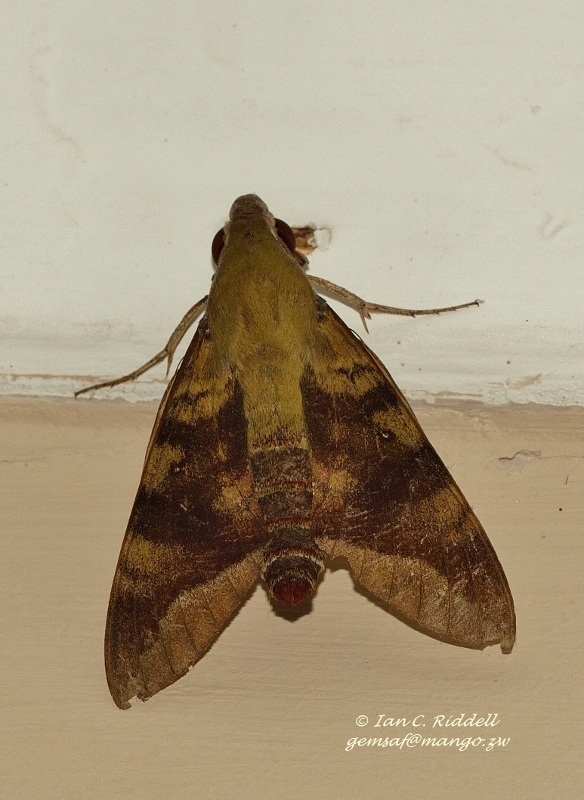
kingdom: Animalia
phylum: Arthropoda
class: Insecta
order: Lepidoptera
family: Sphingidae
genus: Nephele
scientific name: Nephele comma
